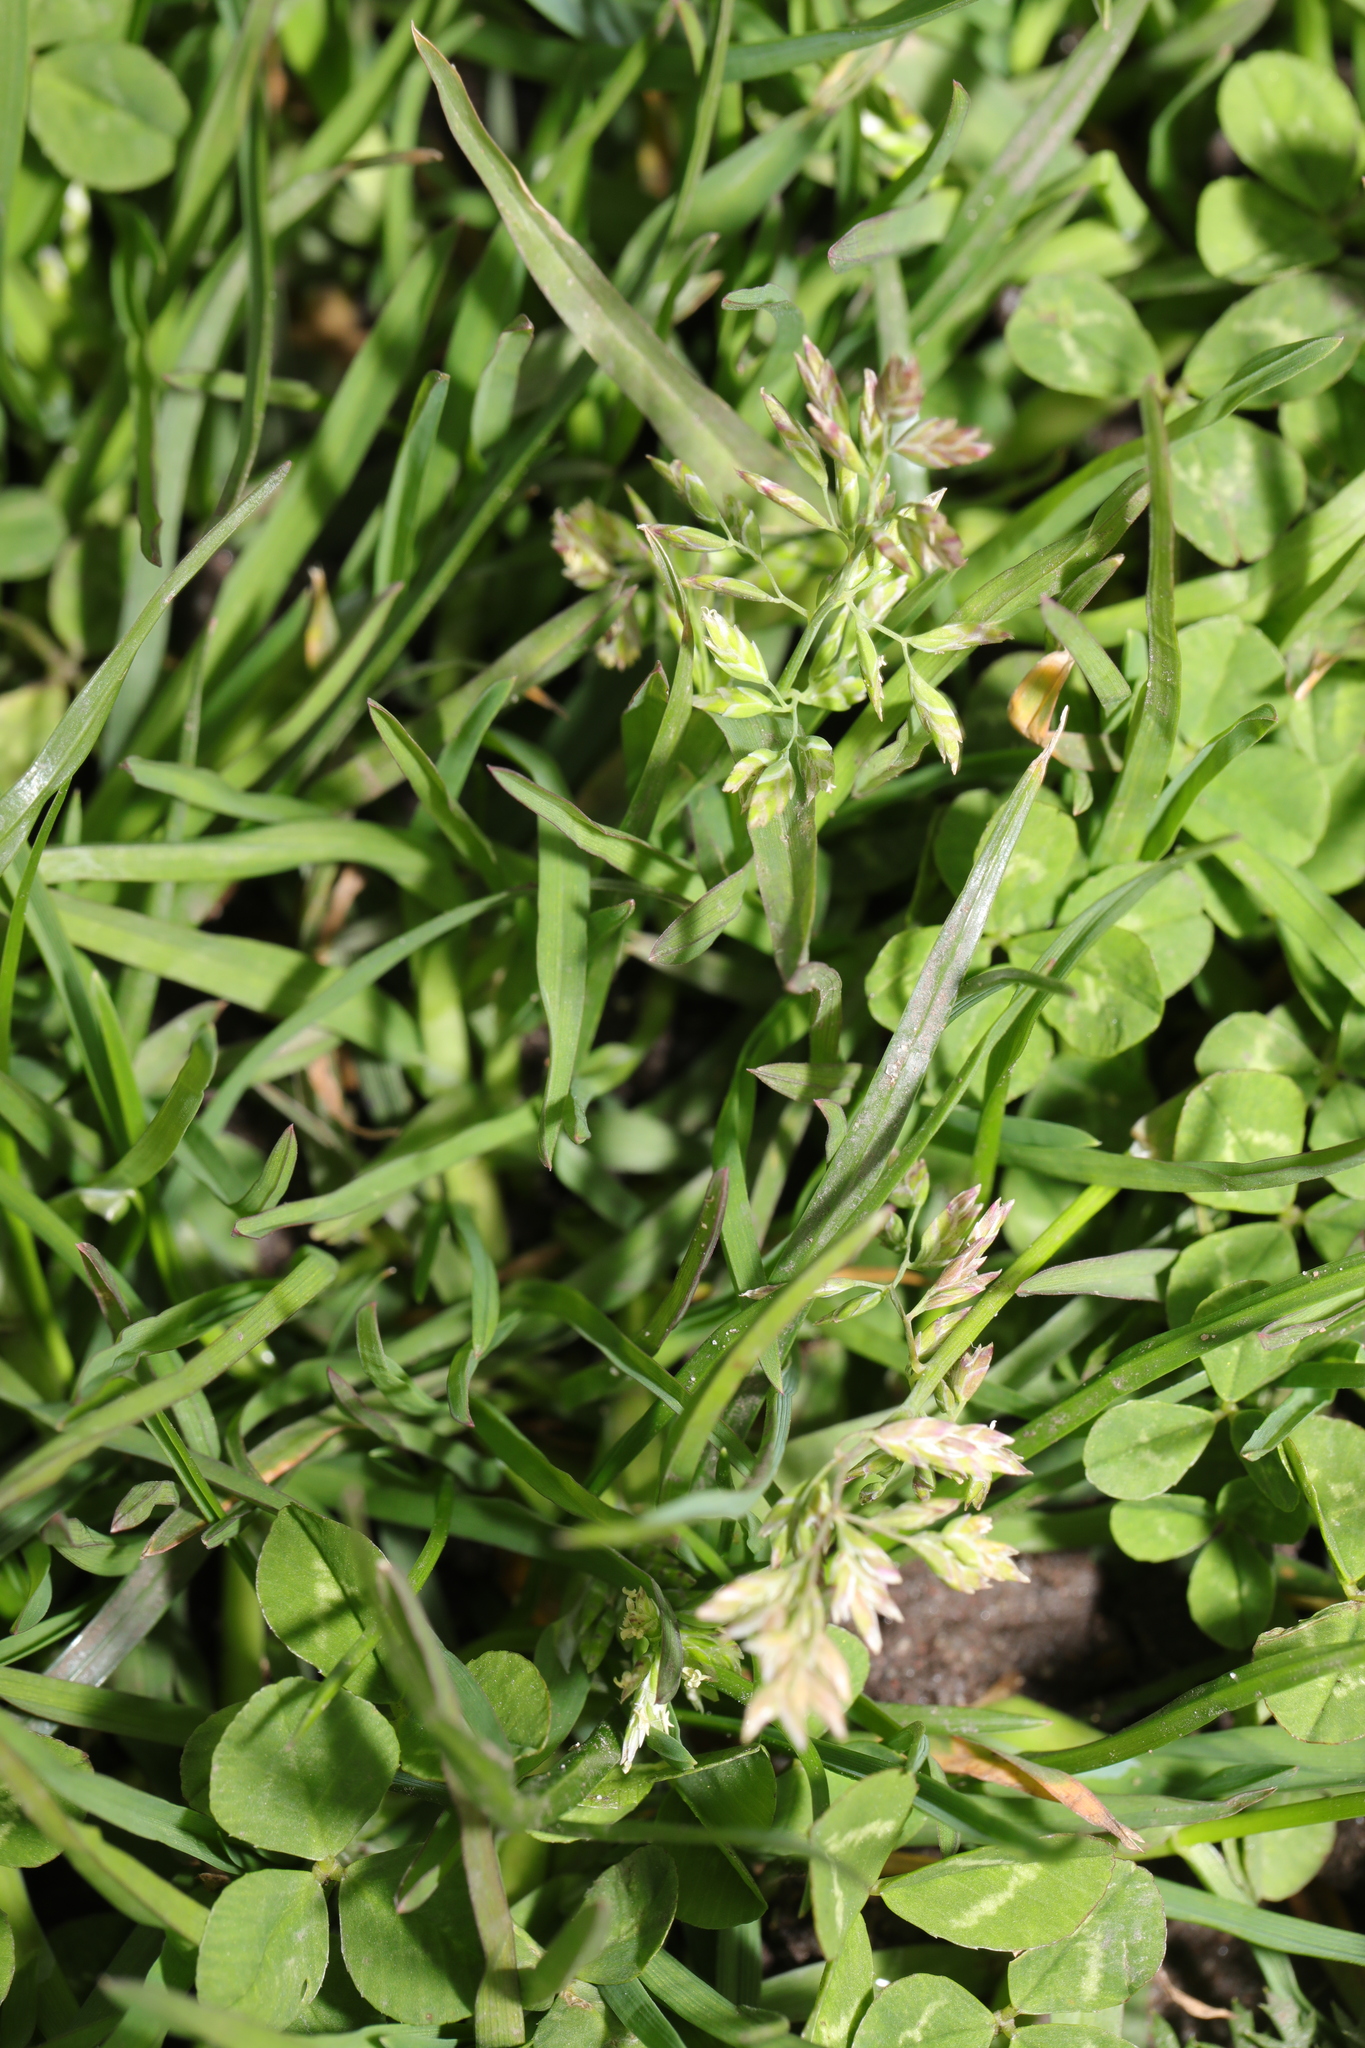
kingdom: Plantae
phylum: Tracheophyta
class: Liliopsida
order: Poales
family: Poaceae
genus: Poa
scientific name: Poa annua
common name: Annual bluegrass
